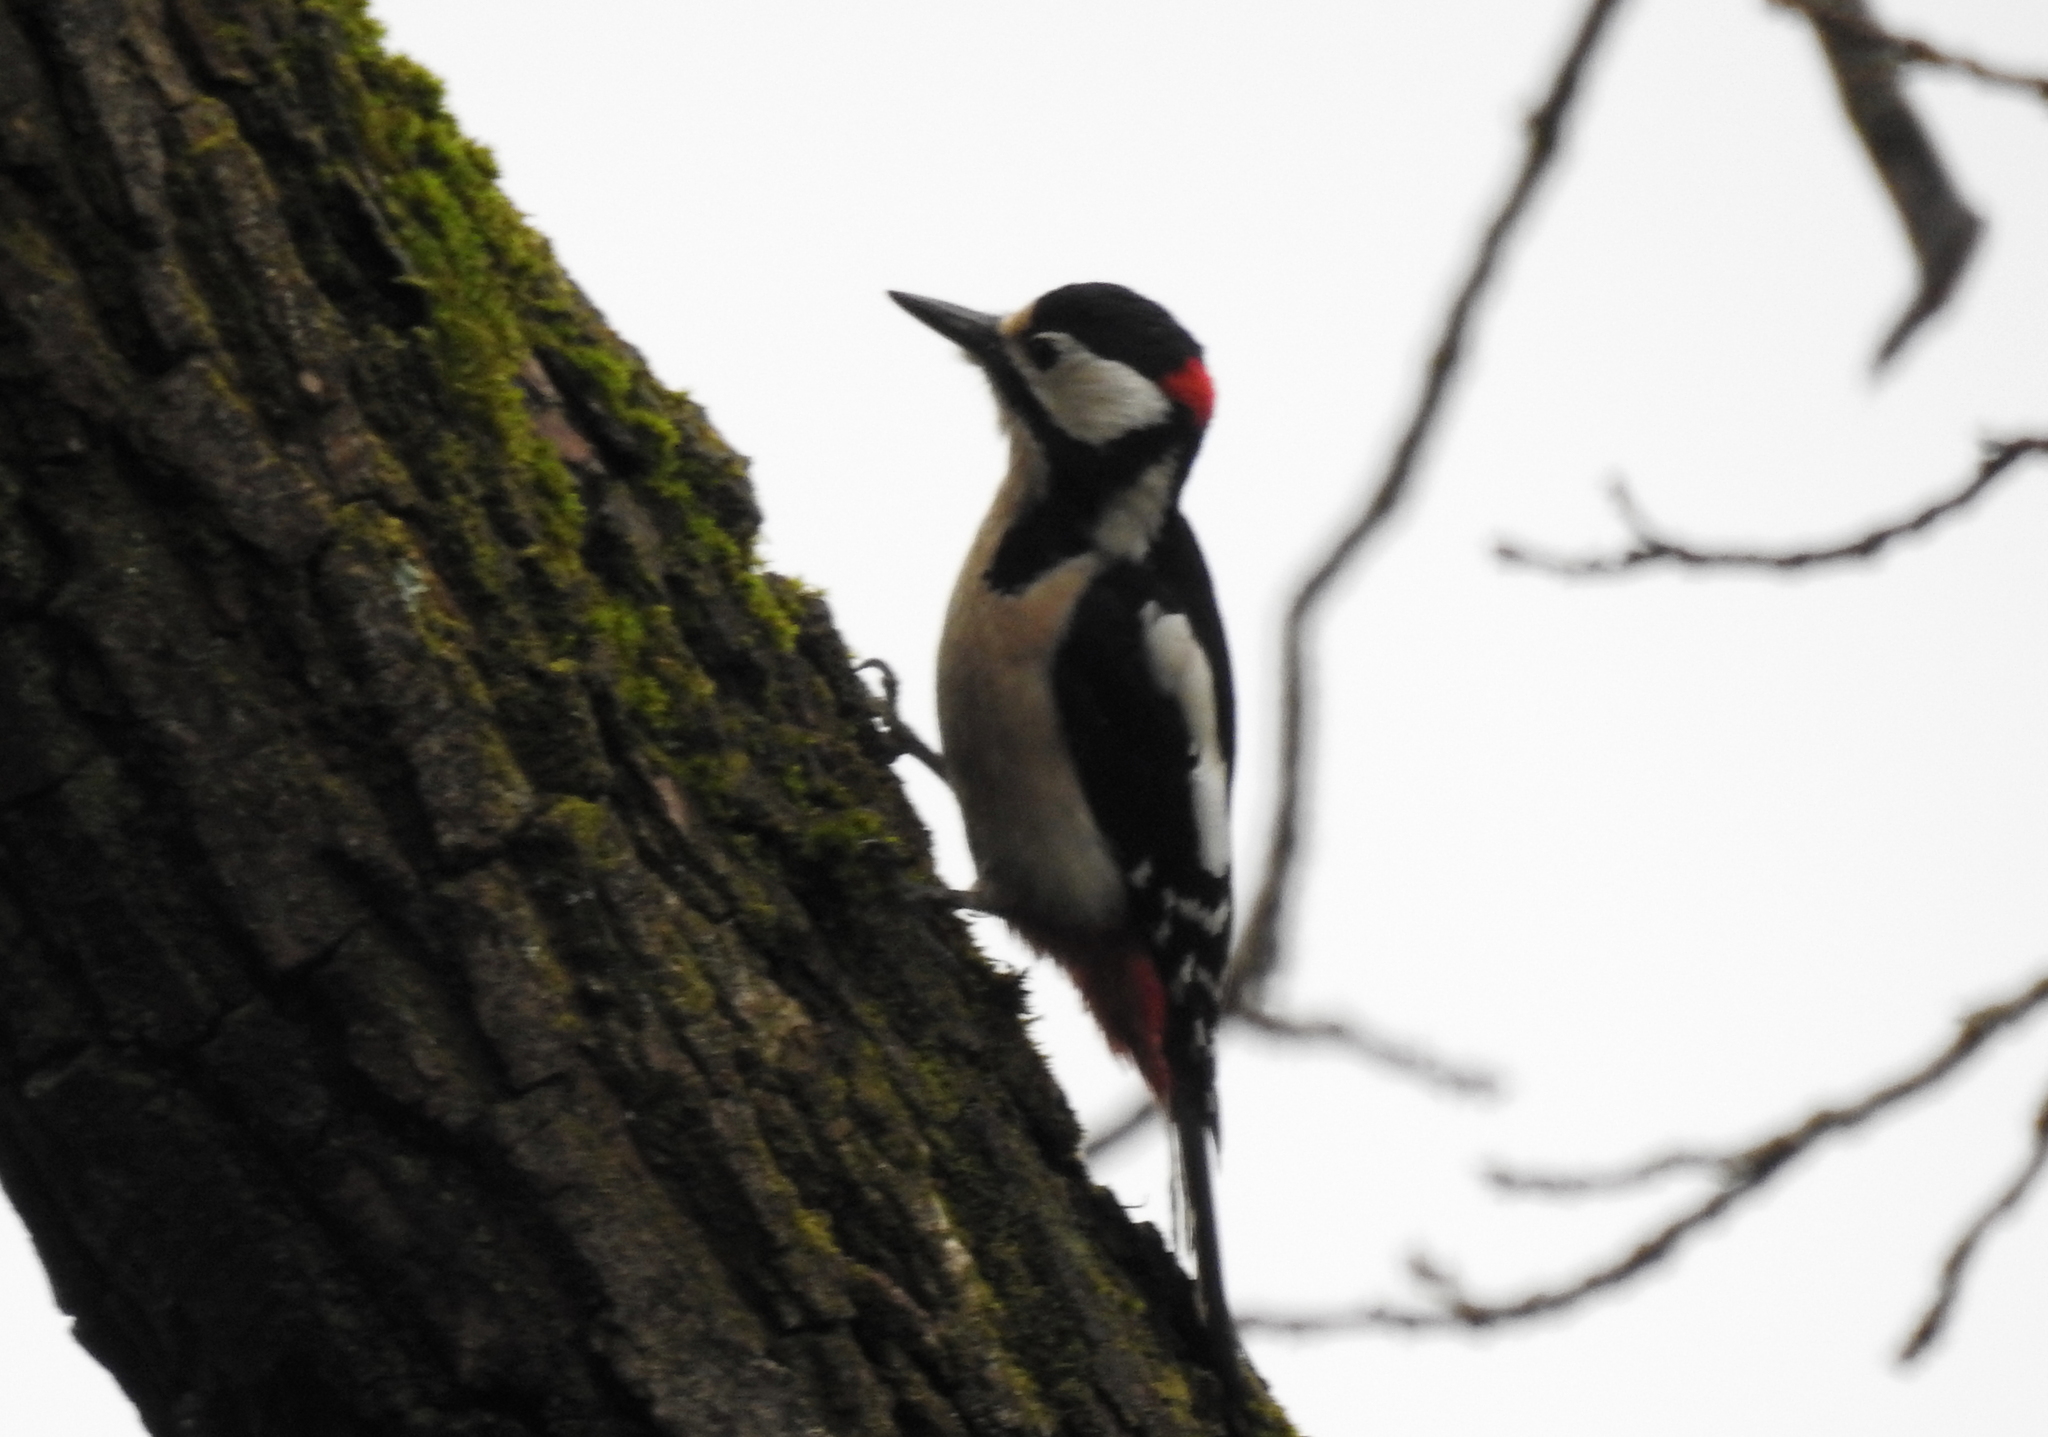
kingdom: Animalia
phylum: Chordata
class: Aves
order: Piciformes
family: Picidae
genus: Dendrocopos
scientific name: Dendrocopos major
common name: Great spotted woodpecker
